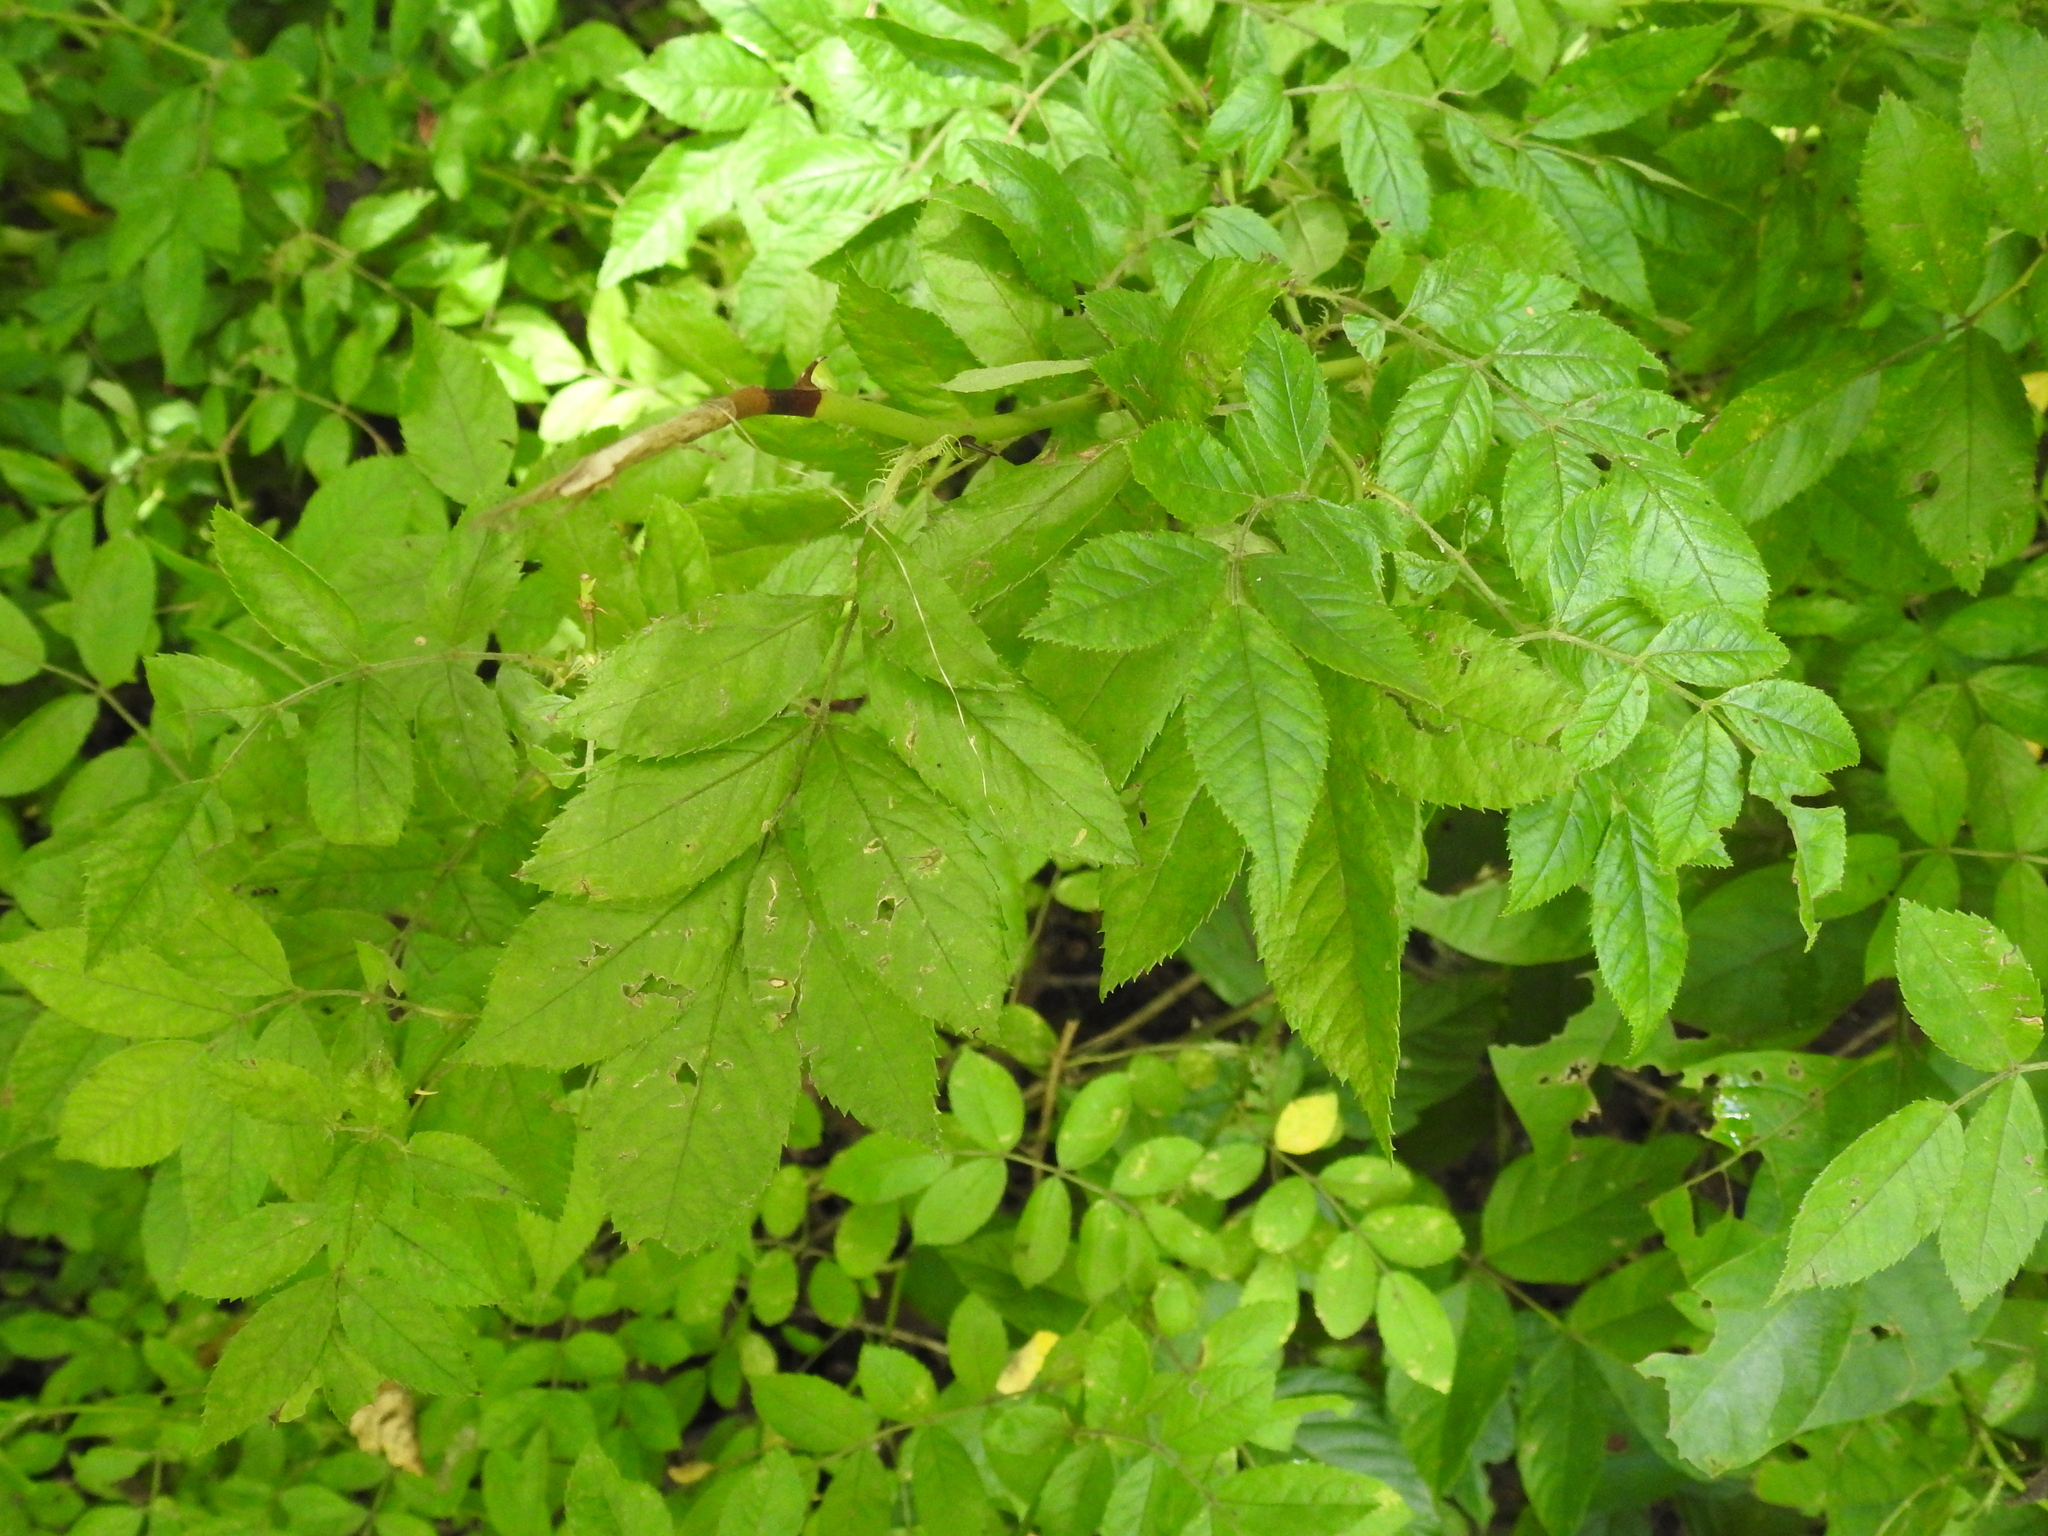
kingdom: Plantae
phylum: Tracheophyta
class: Magnoliopsida
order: Rosales
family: Rosaceae
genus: Rosa
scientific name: Rosa multiflora
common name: Multiflora rose
